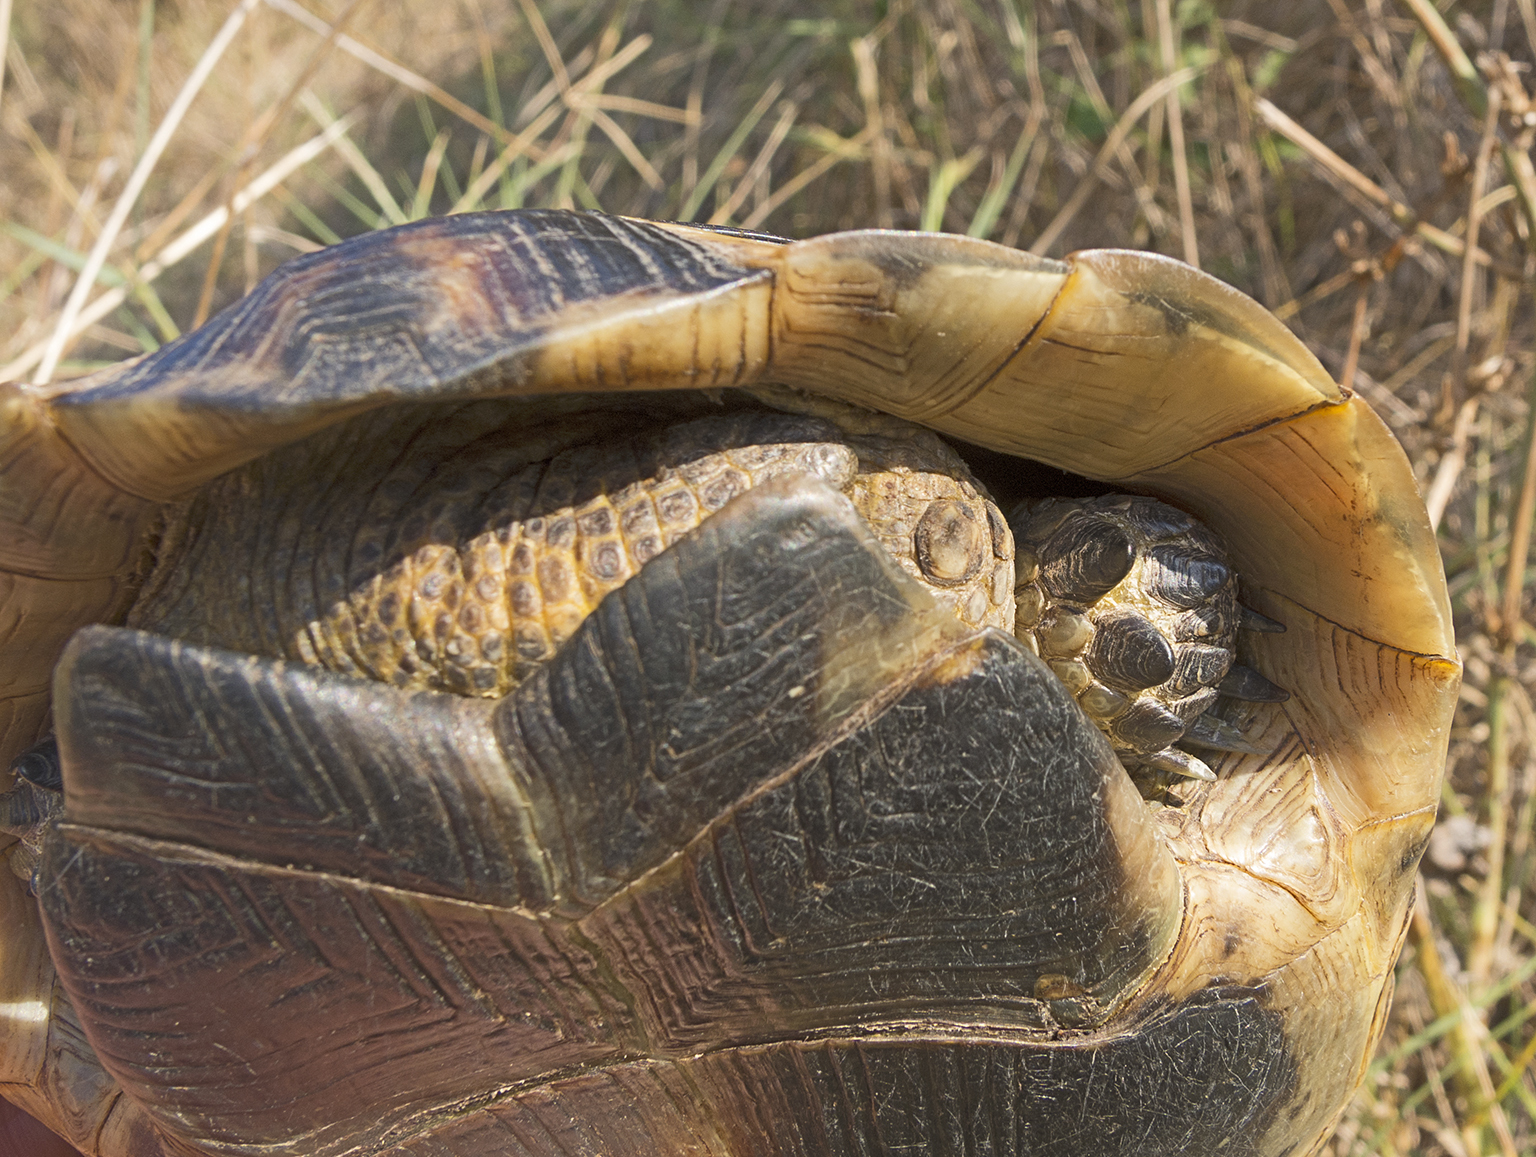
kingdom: Animalia
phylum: Chordata
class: Testudines
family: Testudinidae
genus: Testudo
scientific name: Testudo graeca
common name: Common tortoise
